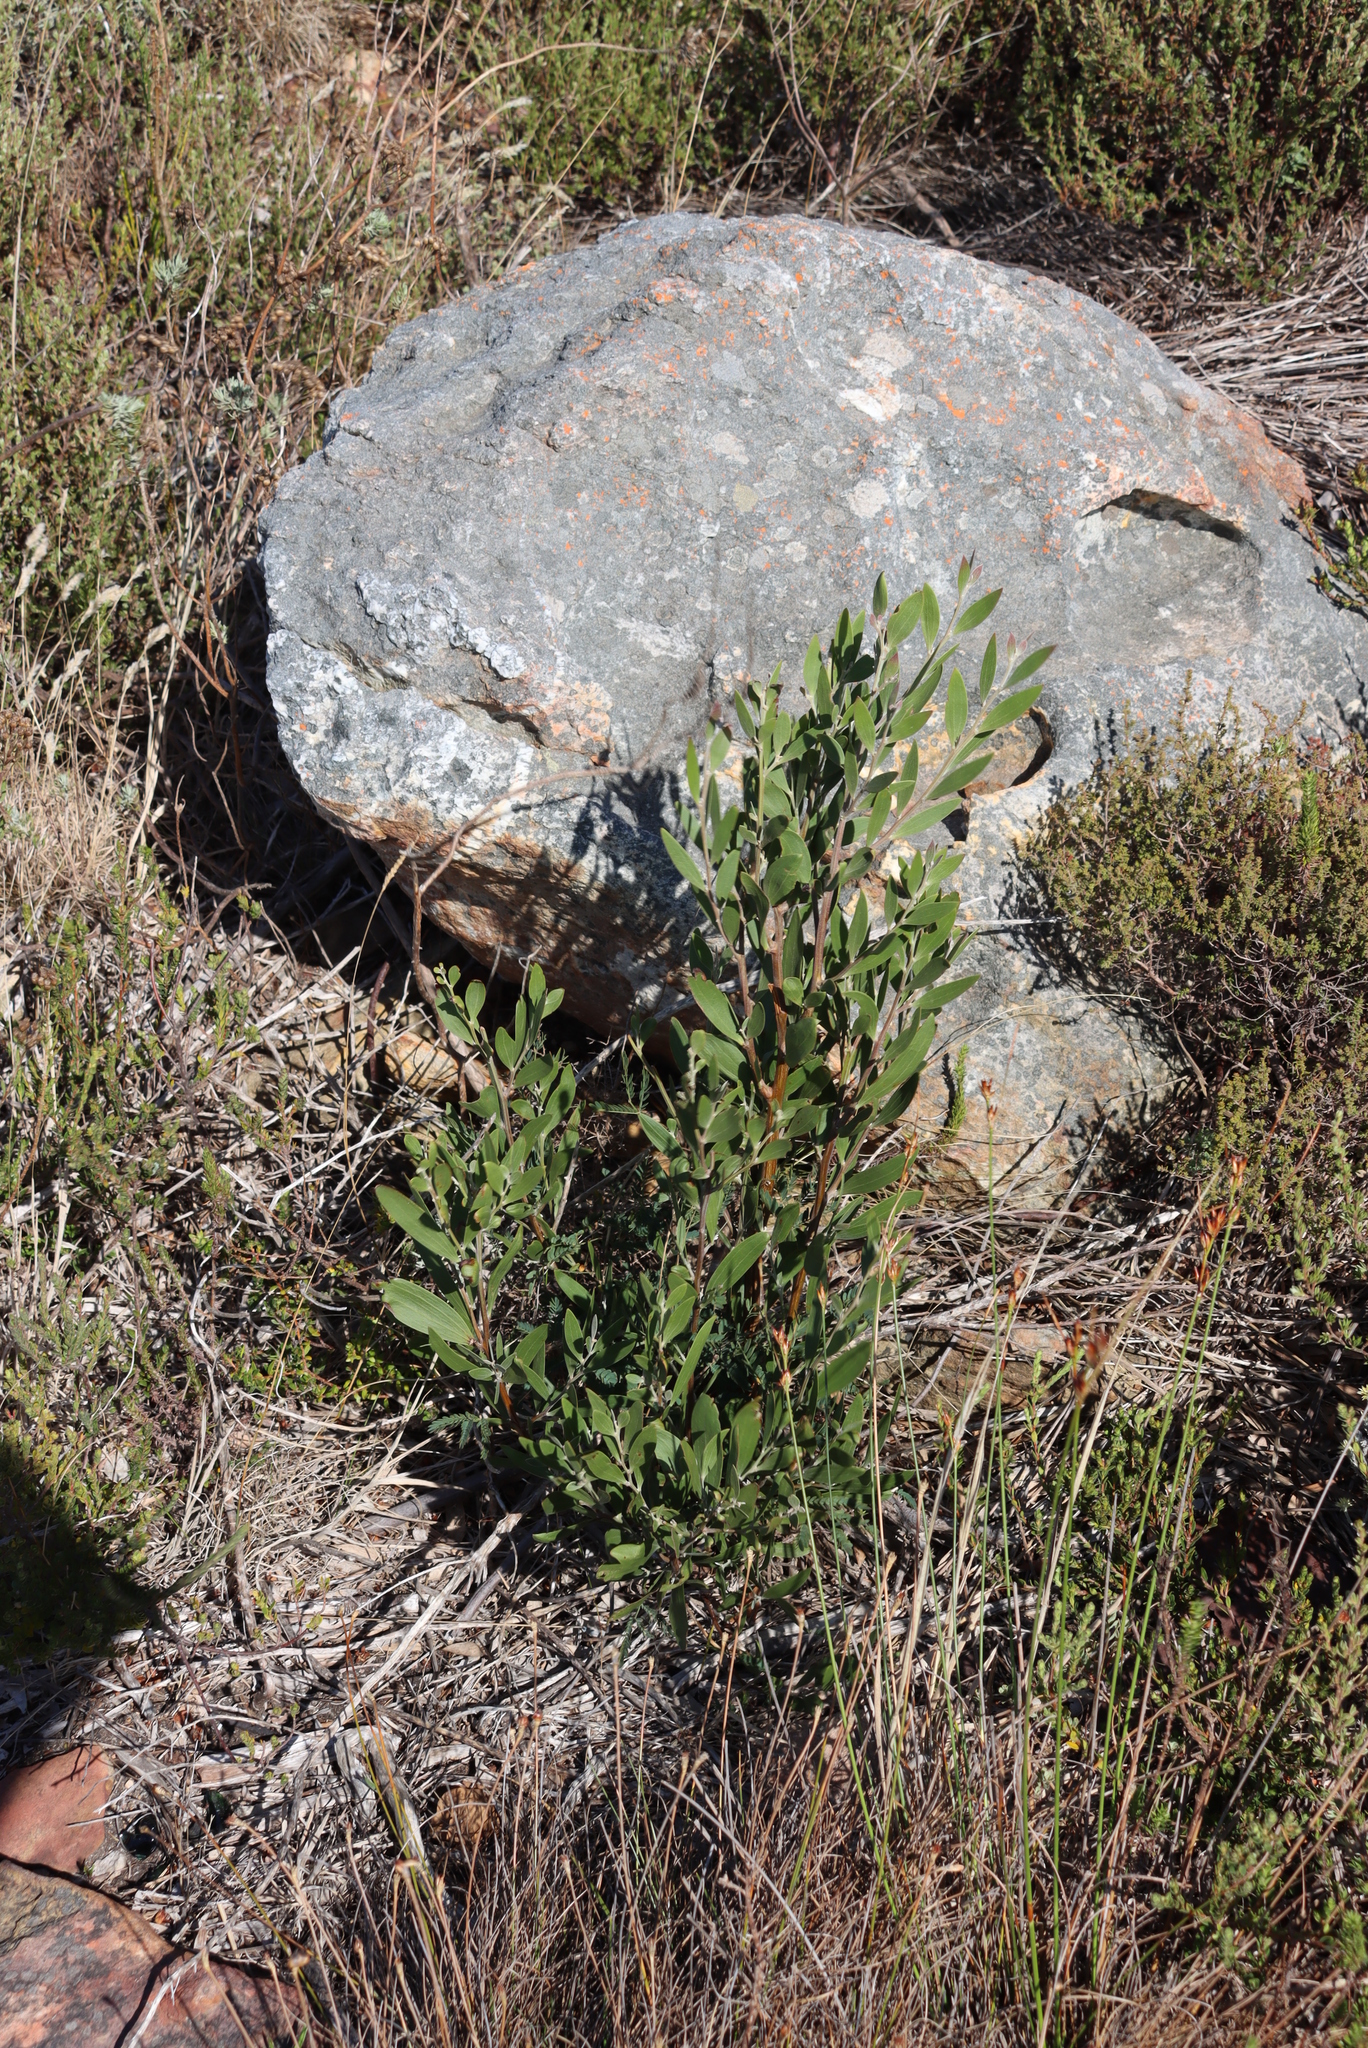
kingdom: Plantae
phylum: Tracheophyta
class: Magnoliopsida
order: Fabales
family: Fabaceae
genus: Acacia
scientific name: Acacia melanoxylon
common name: Blackwood
